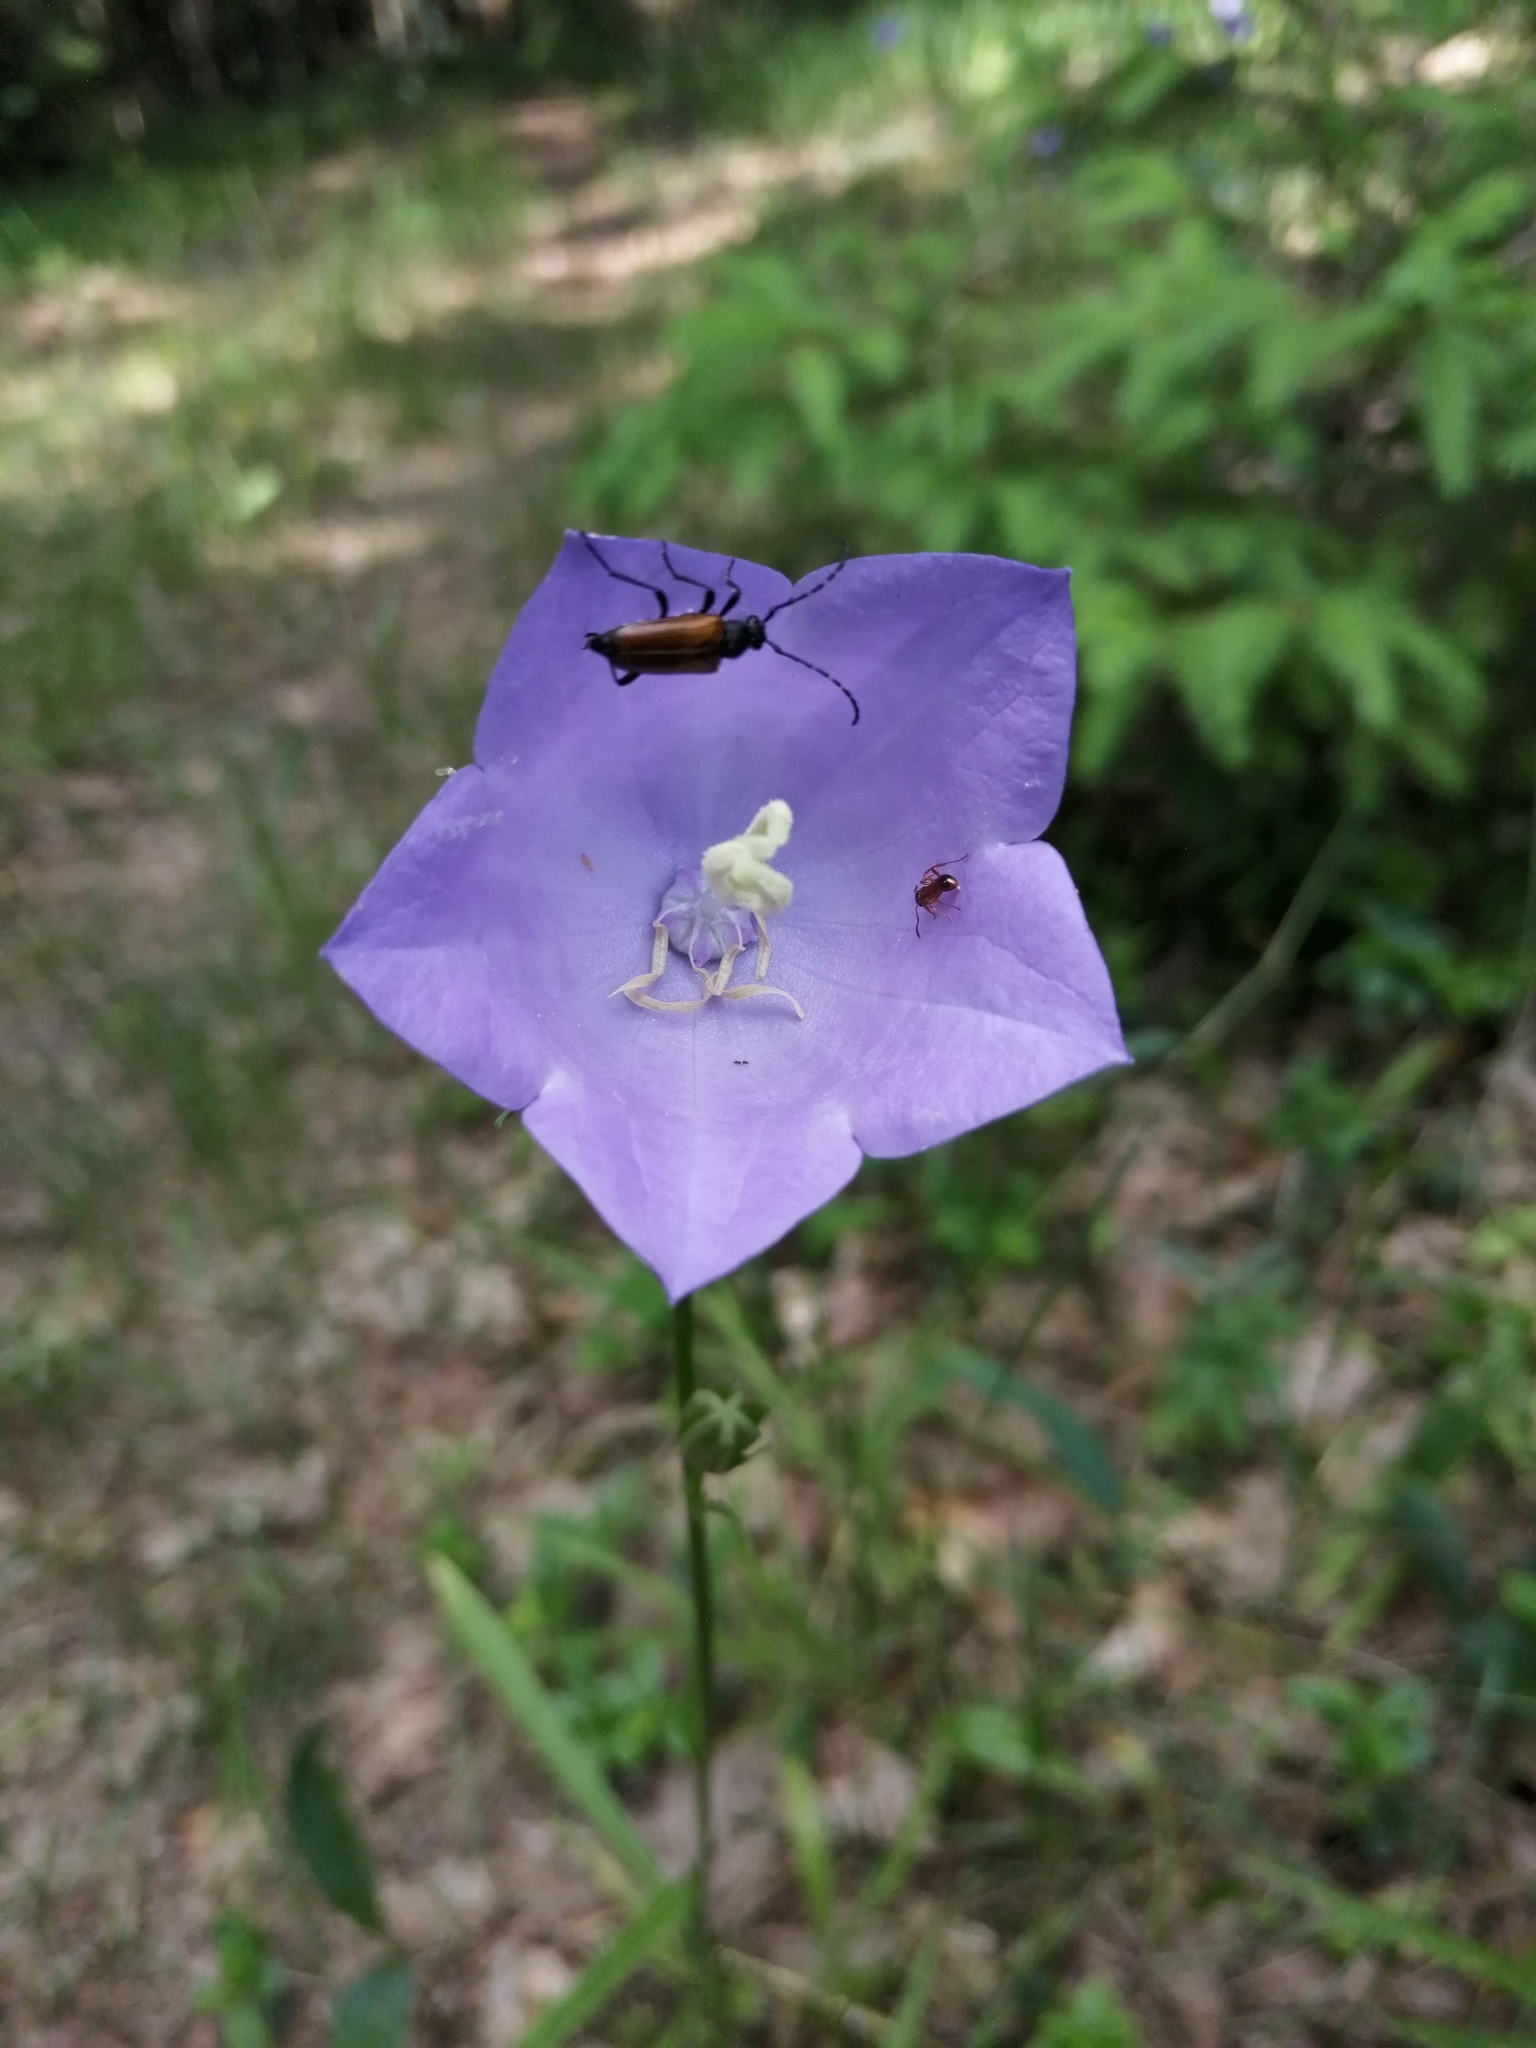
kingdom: Plantae
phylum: Tracheophyta
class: Magnoliopsida
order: Asterales
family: Campanulaceae
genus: Campanula
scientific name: Campanula persicifolia
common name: Peach-leaved bellflower
